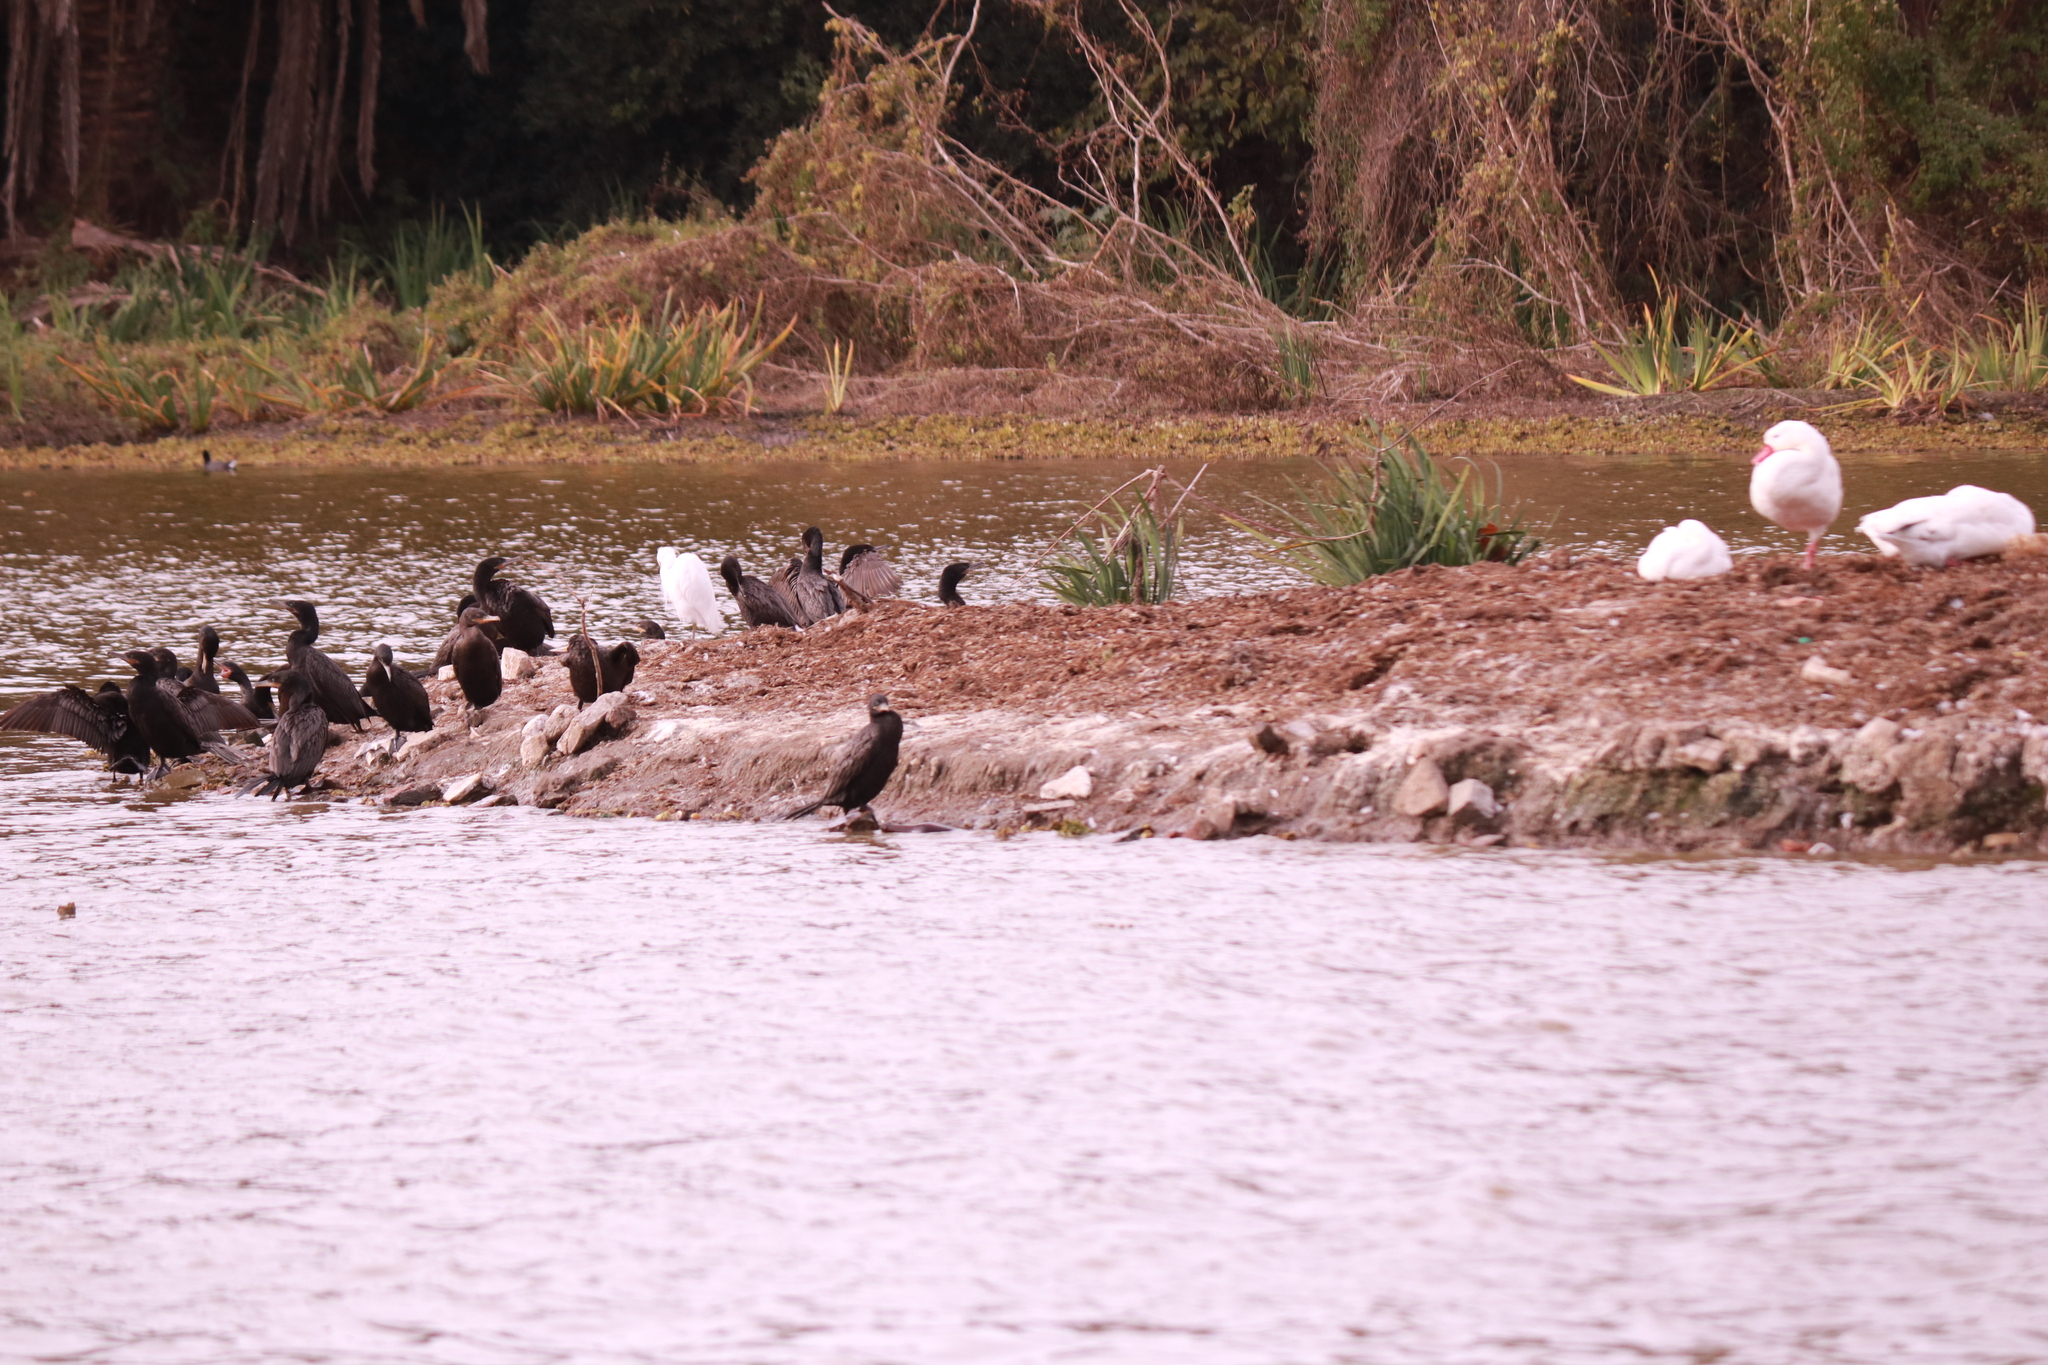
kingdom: Animalia
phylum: Chordata
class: Aves
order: Pelecaniformes
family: Ardeidae
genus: Egretta
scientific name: Egretta thula
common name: Snowy egret
